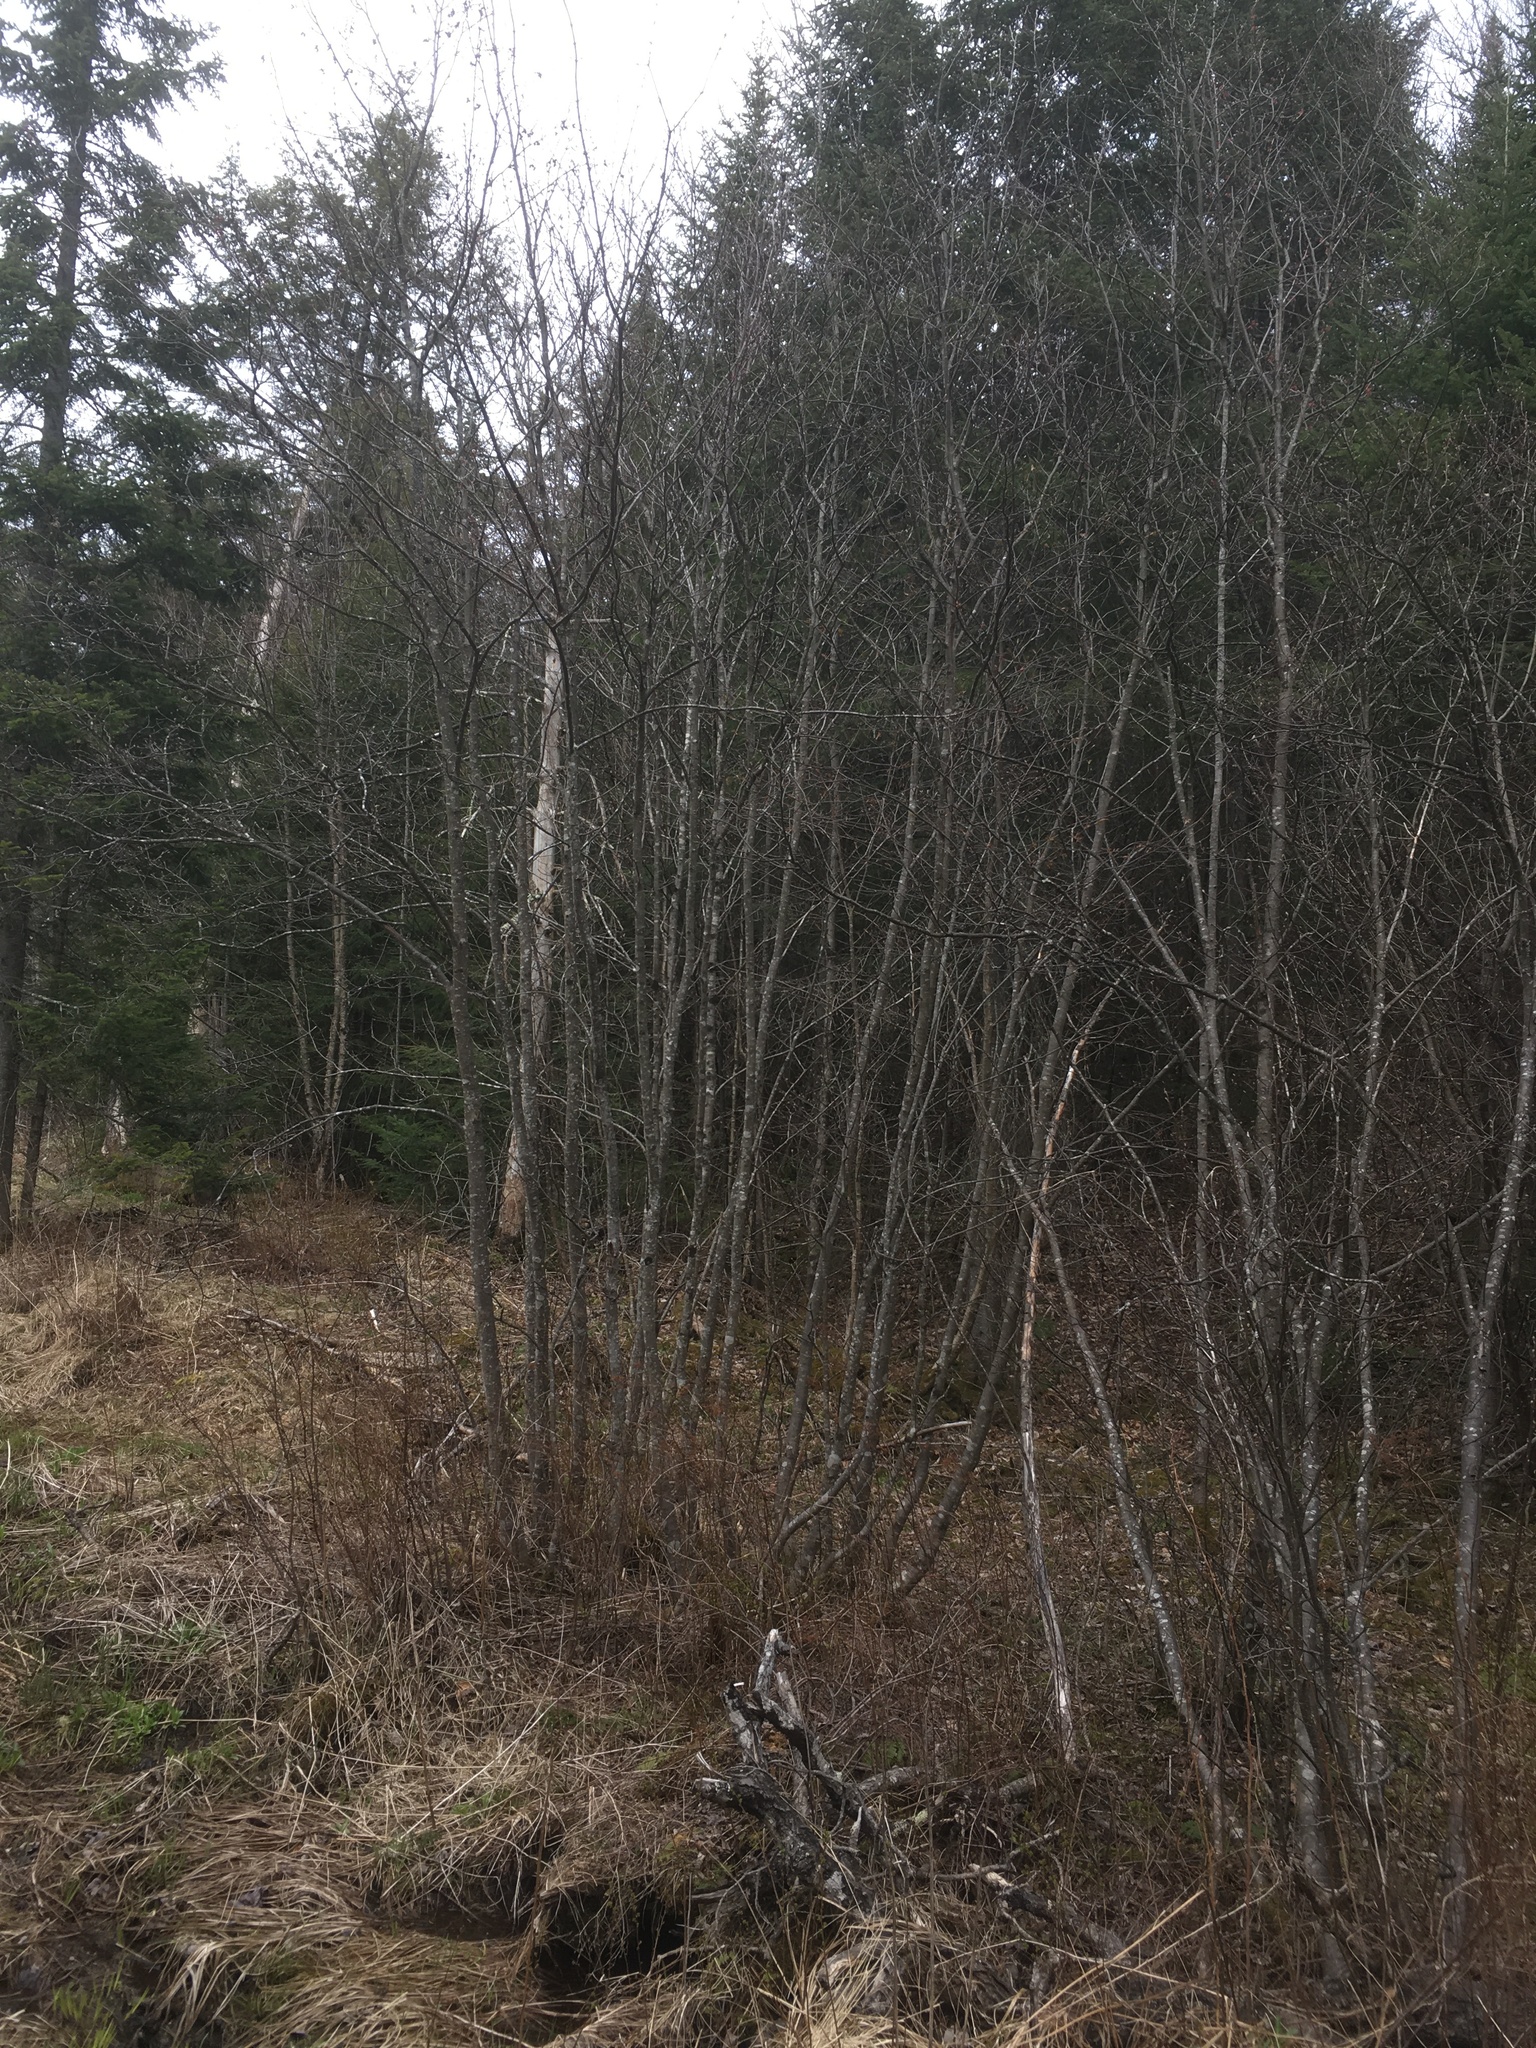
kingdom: Plantae
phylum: Tracheophyta
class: Magnoliopsida
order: Fagales
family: Betulaceae
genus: Alnus
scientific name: Alnus incana
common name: Grey alder
